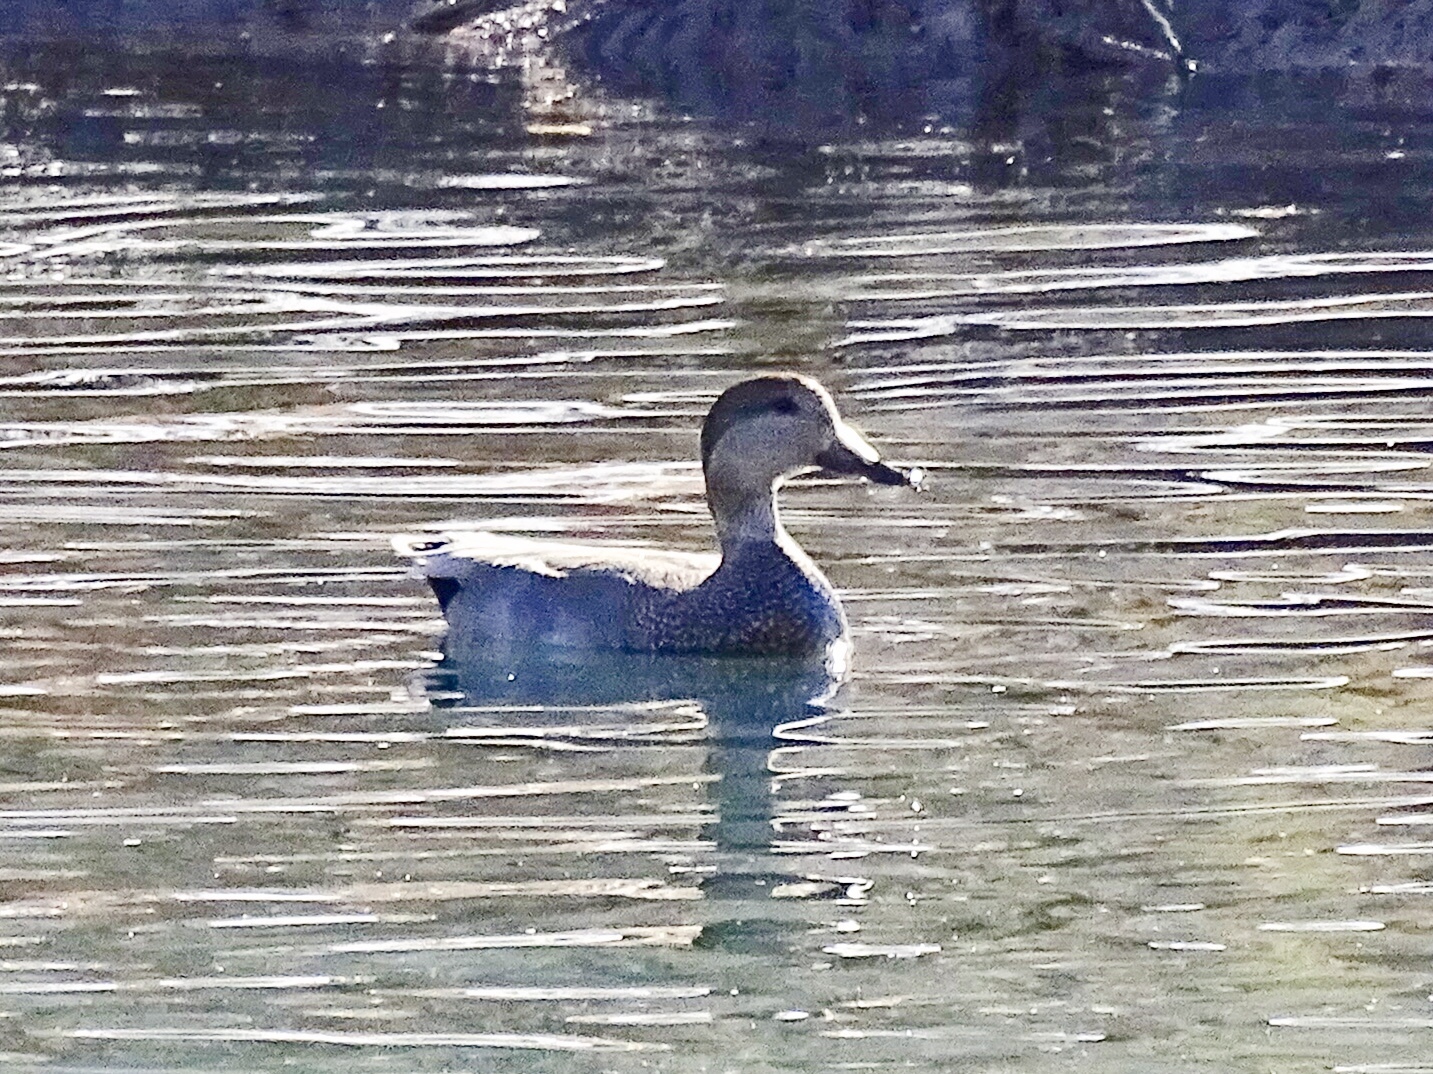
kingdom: Animalia
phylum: Chordata
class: Aves
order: Anseriformes
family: Anatidae
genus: Mareca
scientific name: Mareca strepera
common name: Gadwall
